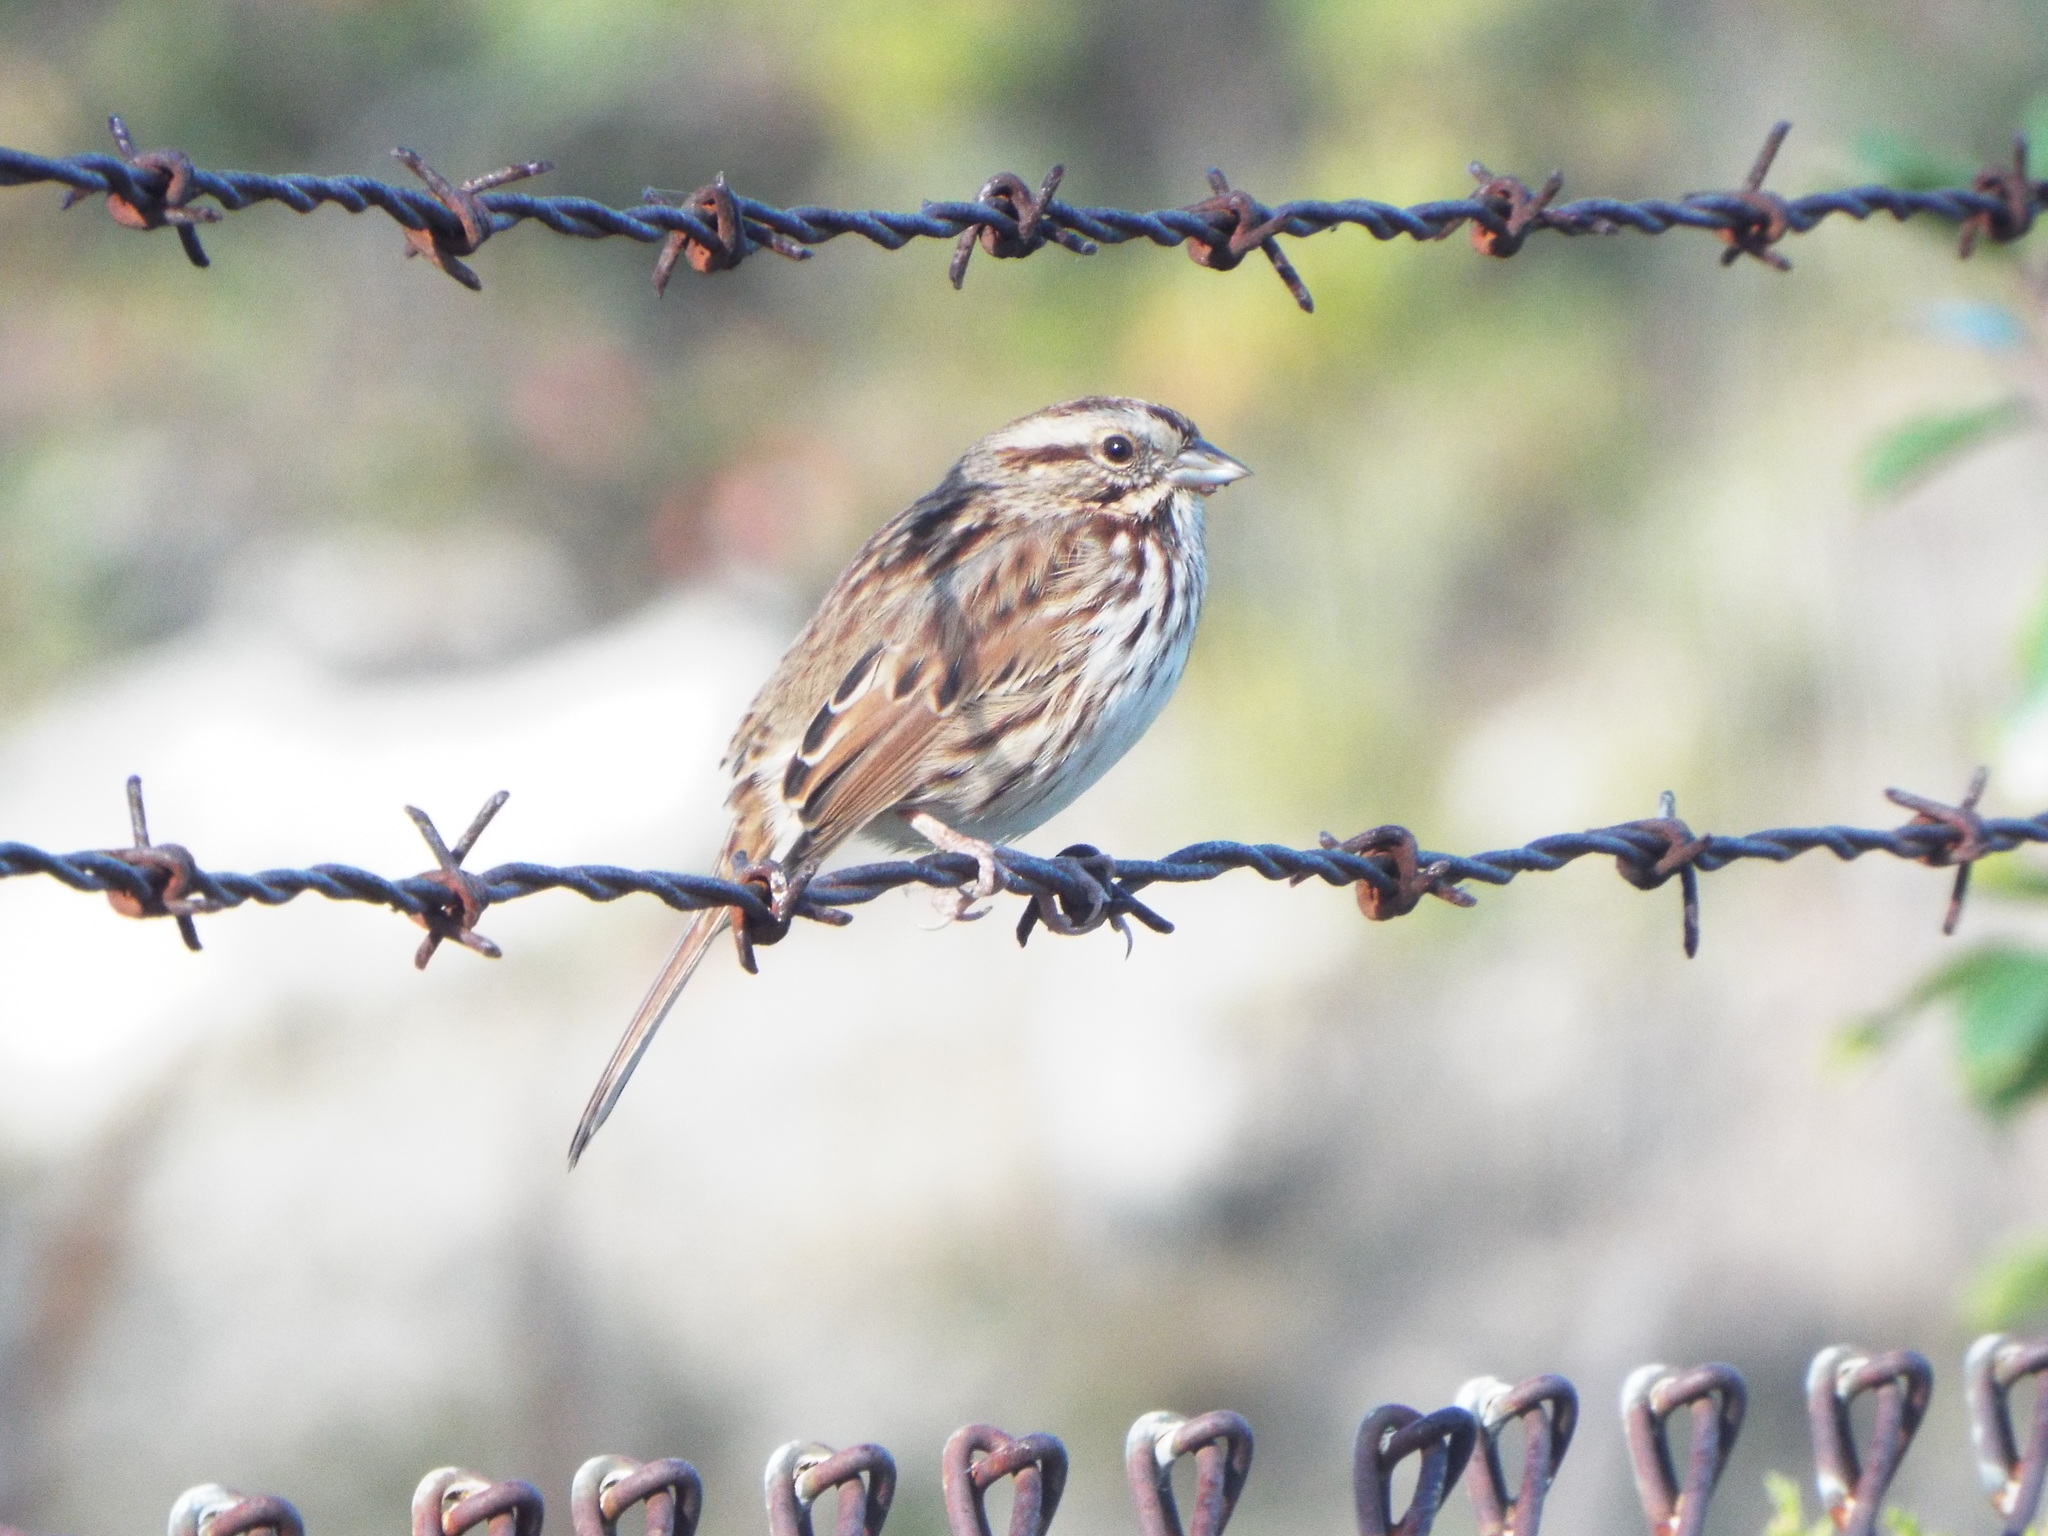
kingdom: Animalia
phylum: Chordata
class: Aves
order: Passeriformes
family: Passerellidae
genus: Melospiza
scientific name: Melospiza melodia
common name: Song sparrow
